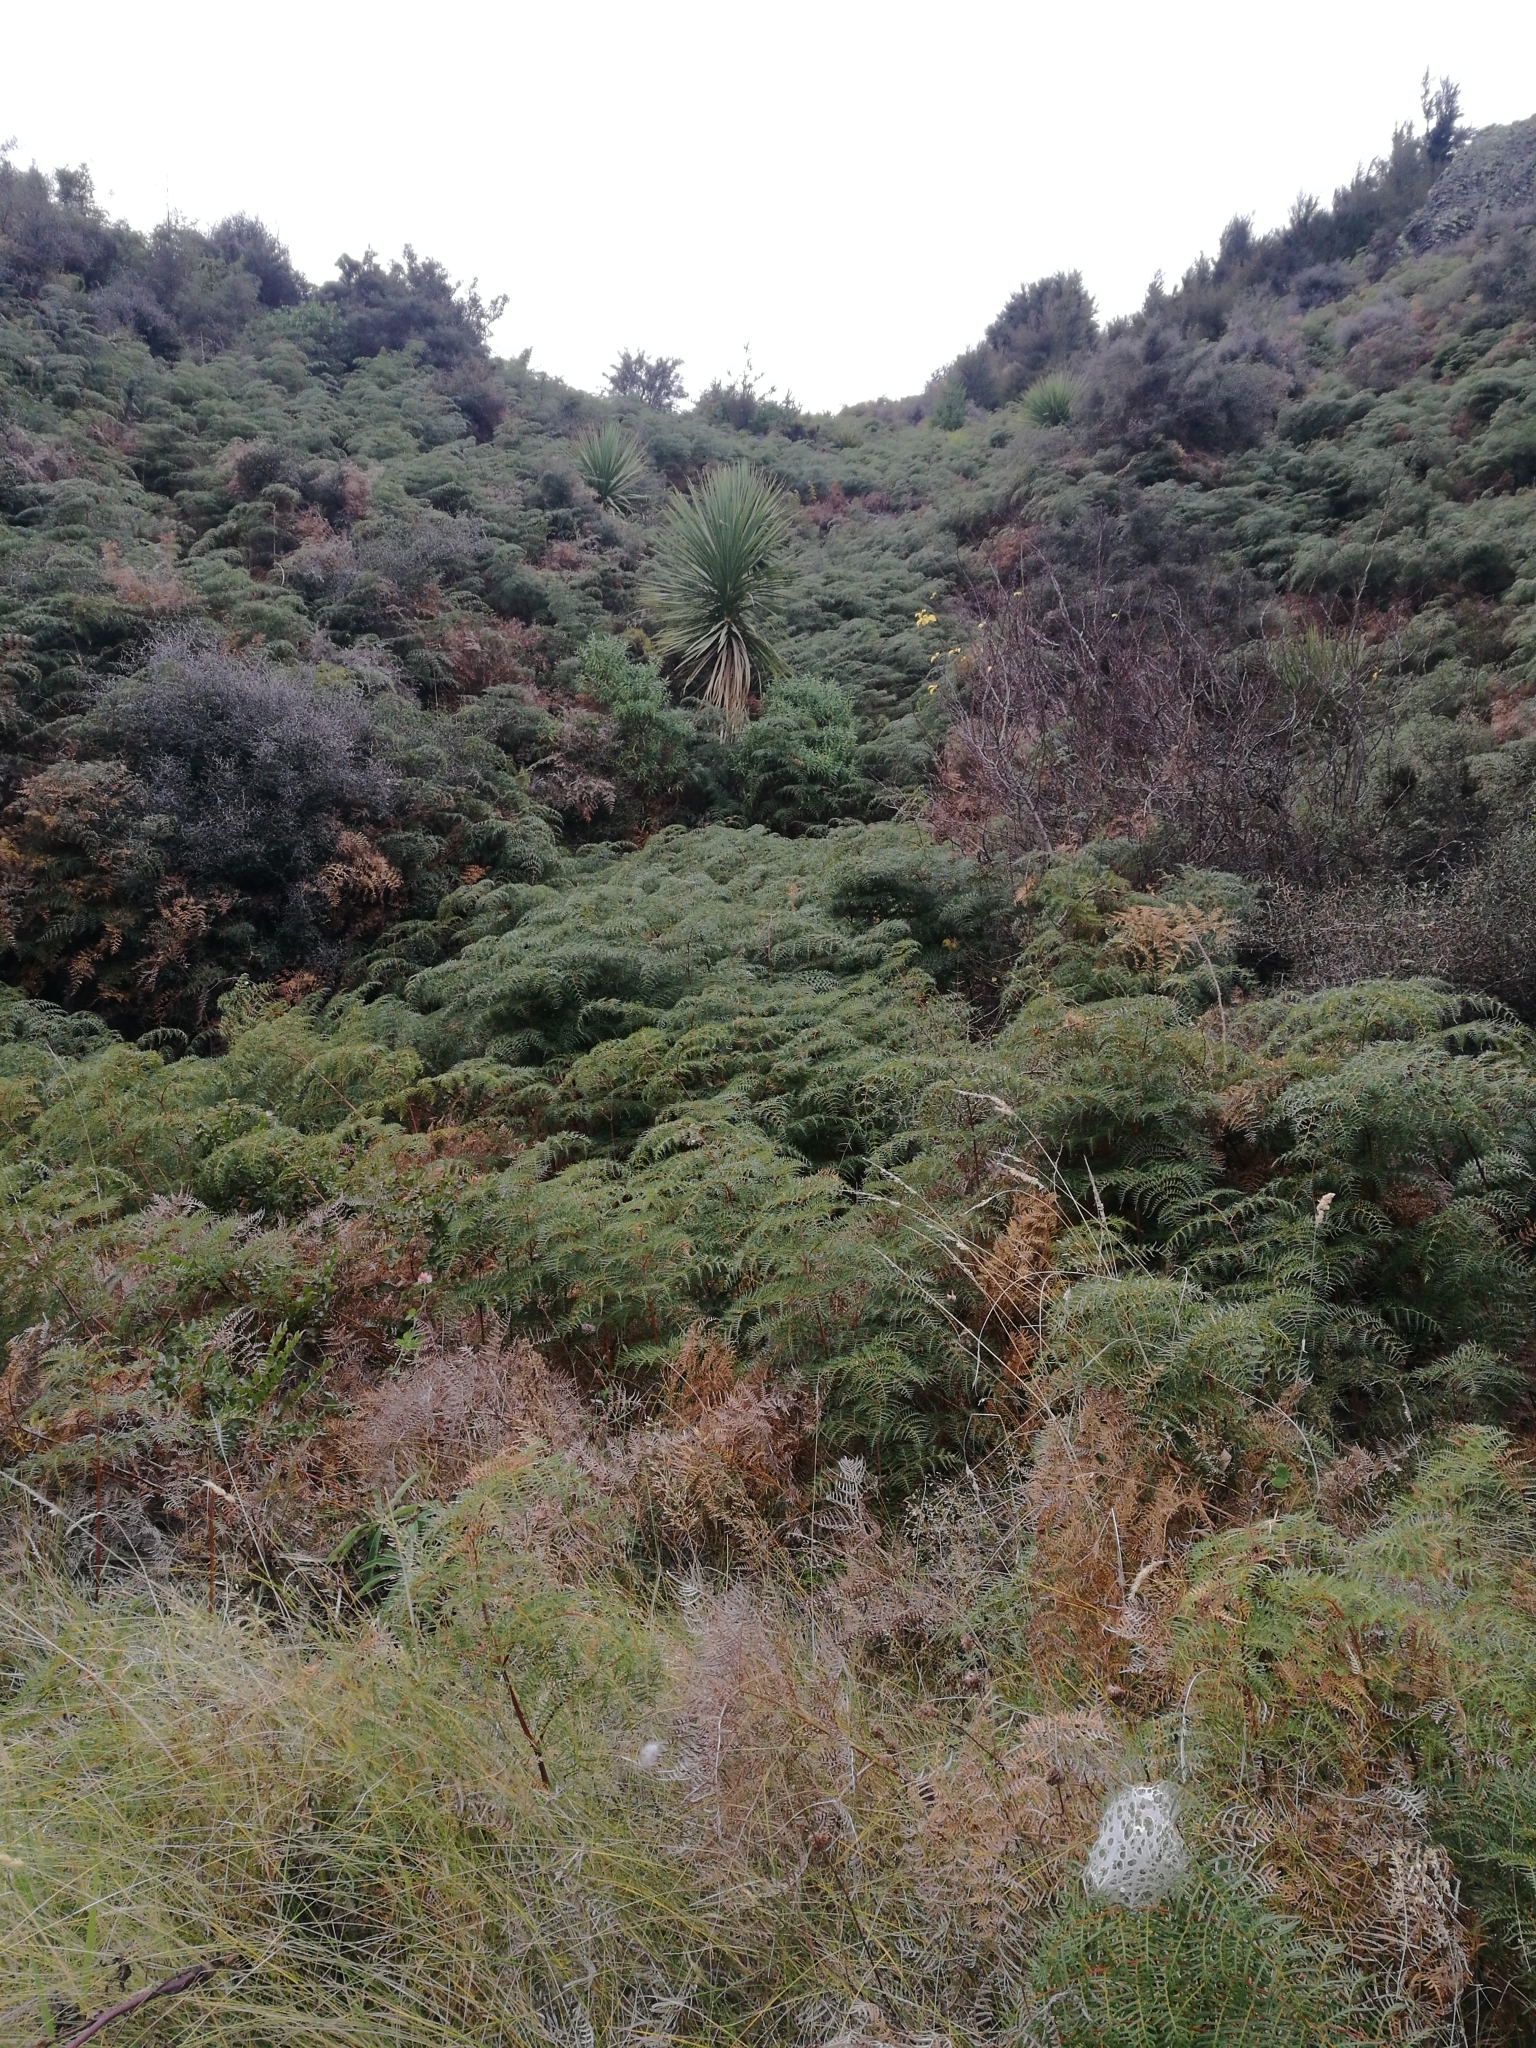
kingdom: Plantae
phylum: Tracheophyta
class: Polypodiopsida
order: Polypodiales
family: Dennstaedtiaceae
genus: Pteridium
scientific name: Pteridium esculentum
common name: Bracken fern
